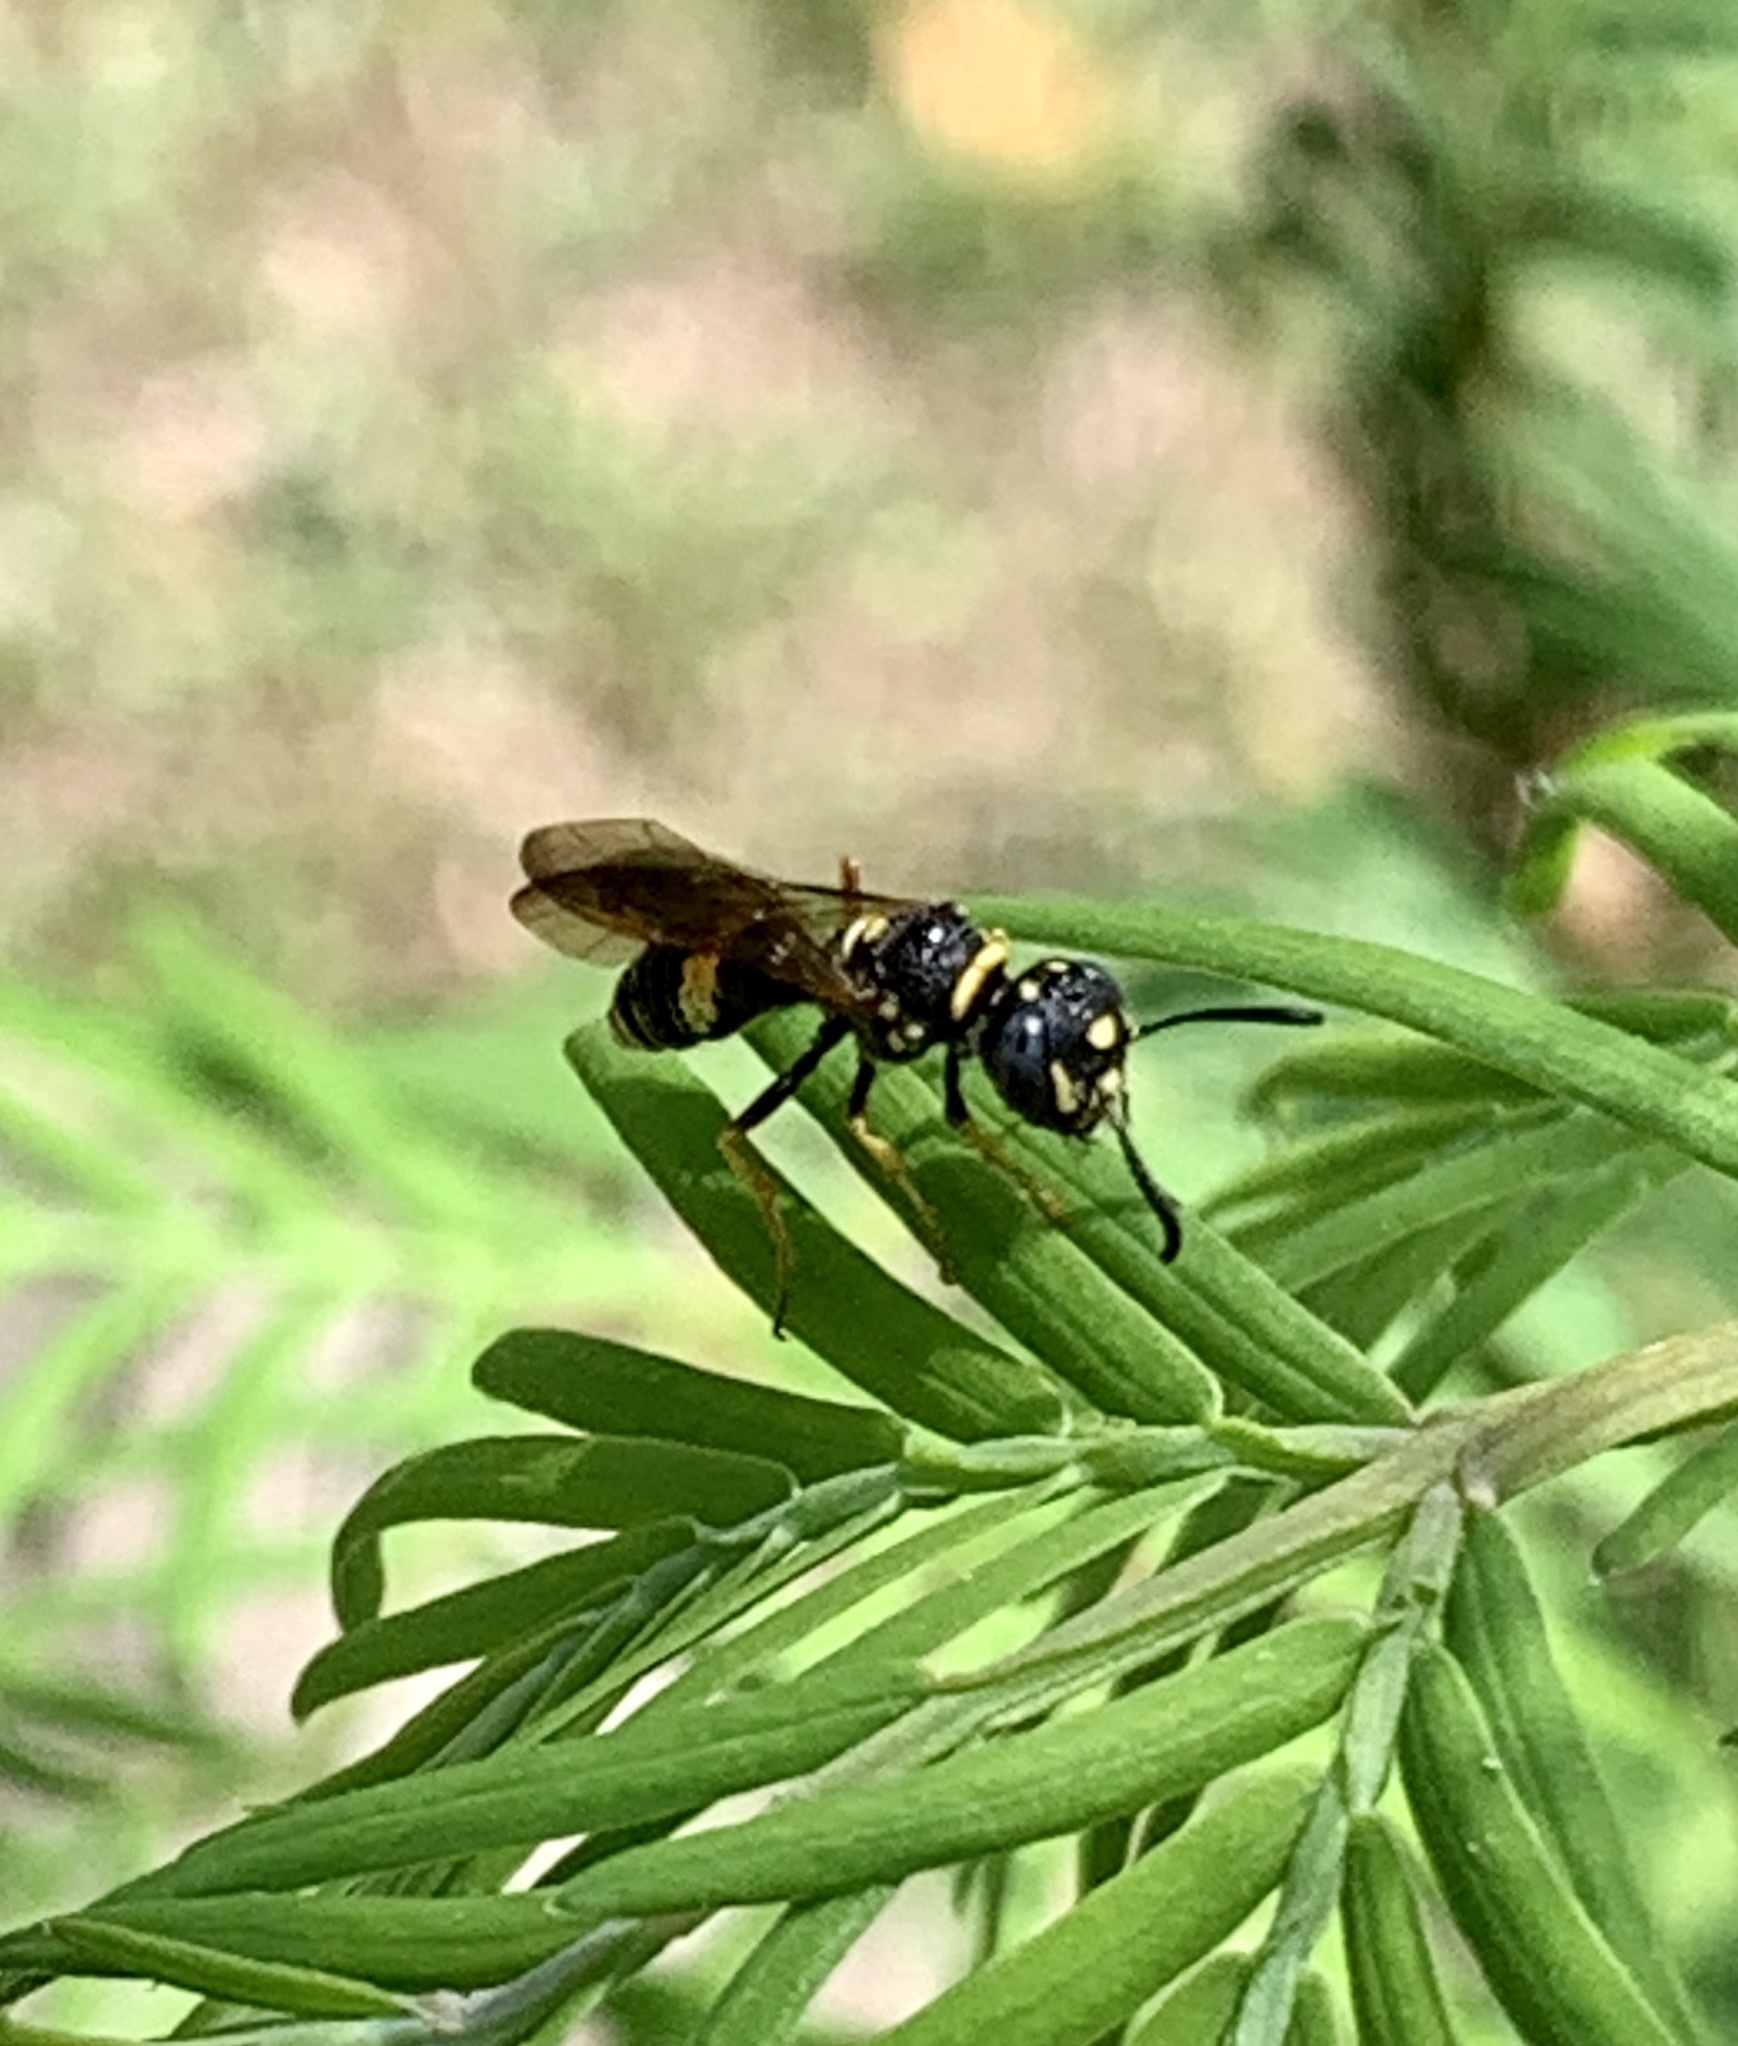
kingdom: Animalia
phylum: Arthropoda
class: Insecta
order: Hymenoptera
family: Crabronidae
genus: Philanthus
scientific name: Philanthus gibbosus
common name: Humped beewolf
